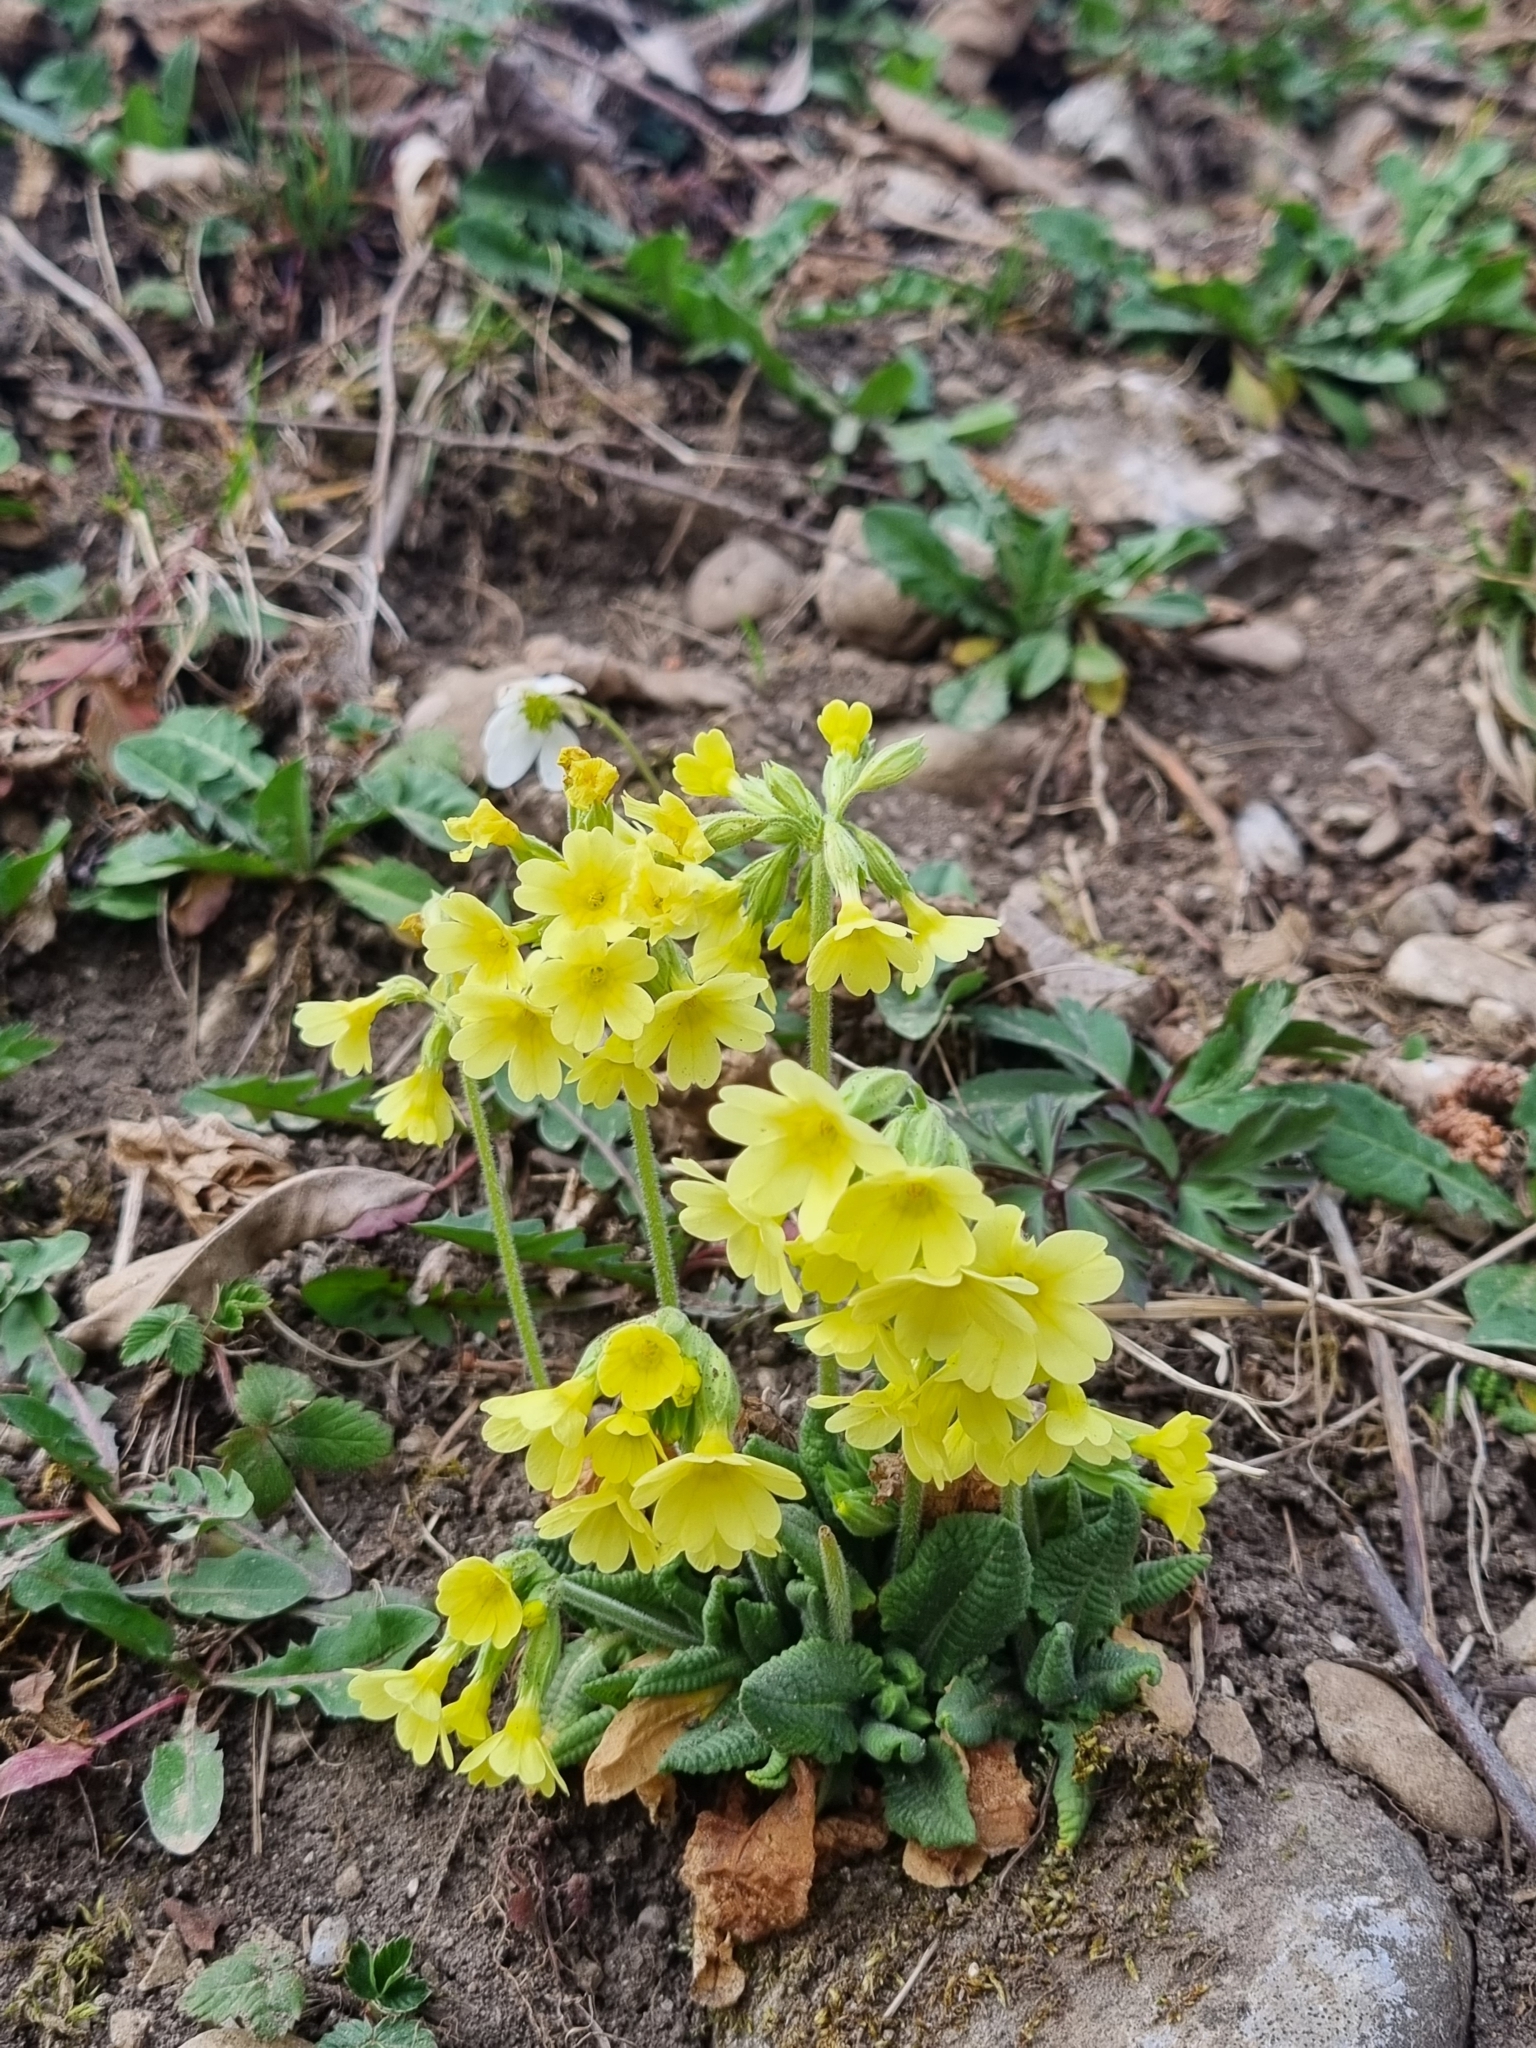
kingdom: Plantae
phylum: Tracheophyta
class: Magnoliopsida
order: Ericales
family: Primulaceae
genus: Primula
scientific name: Primula elatior
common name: Oxlip
